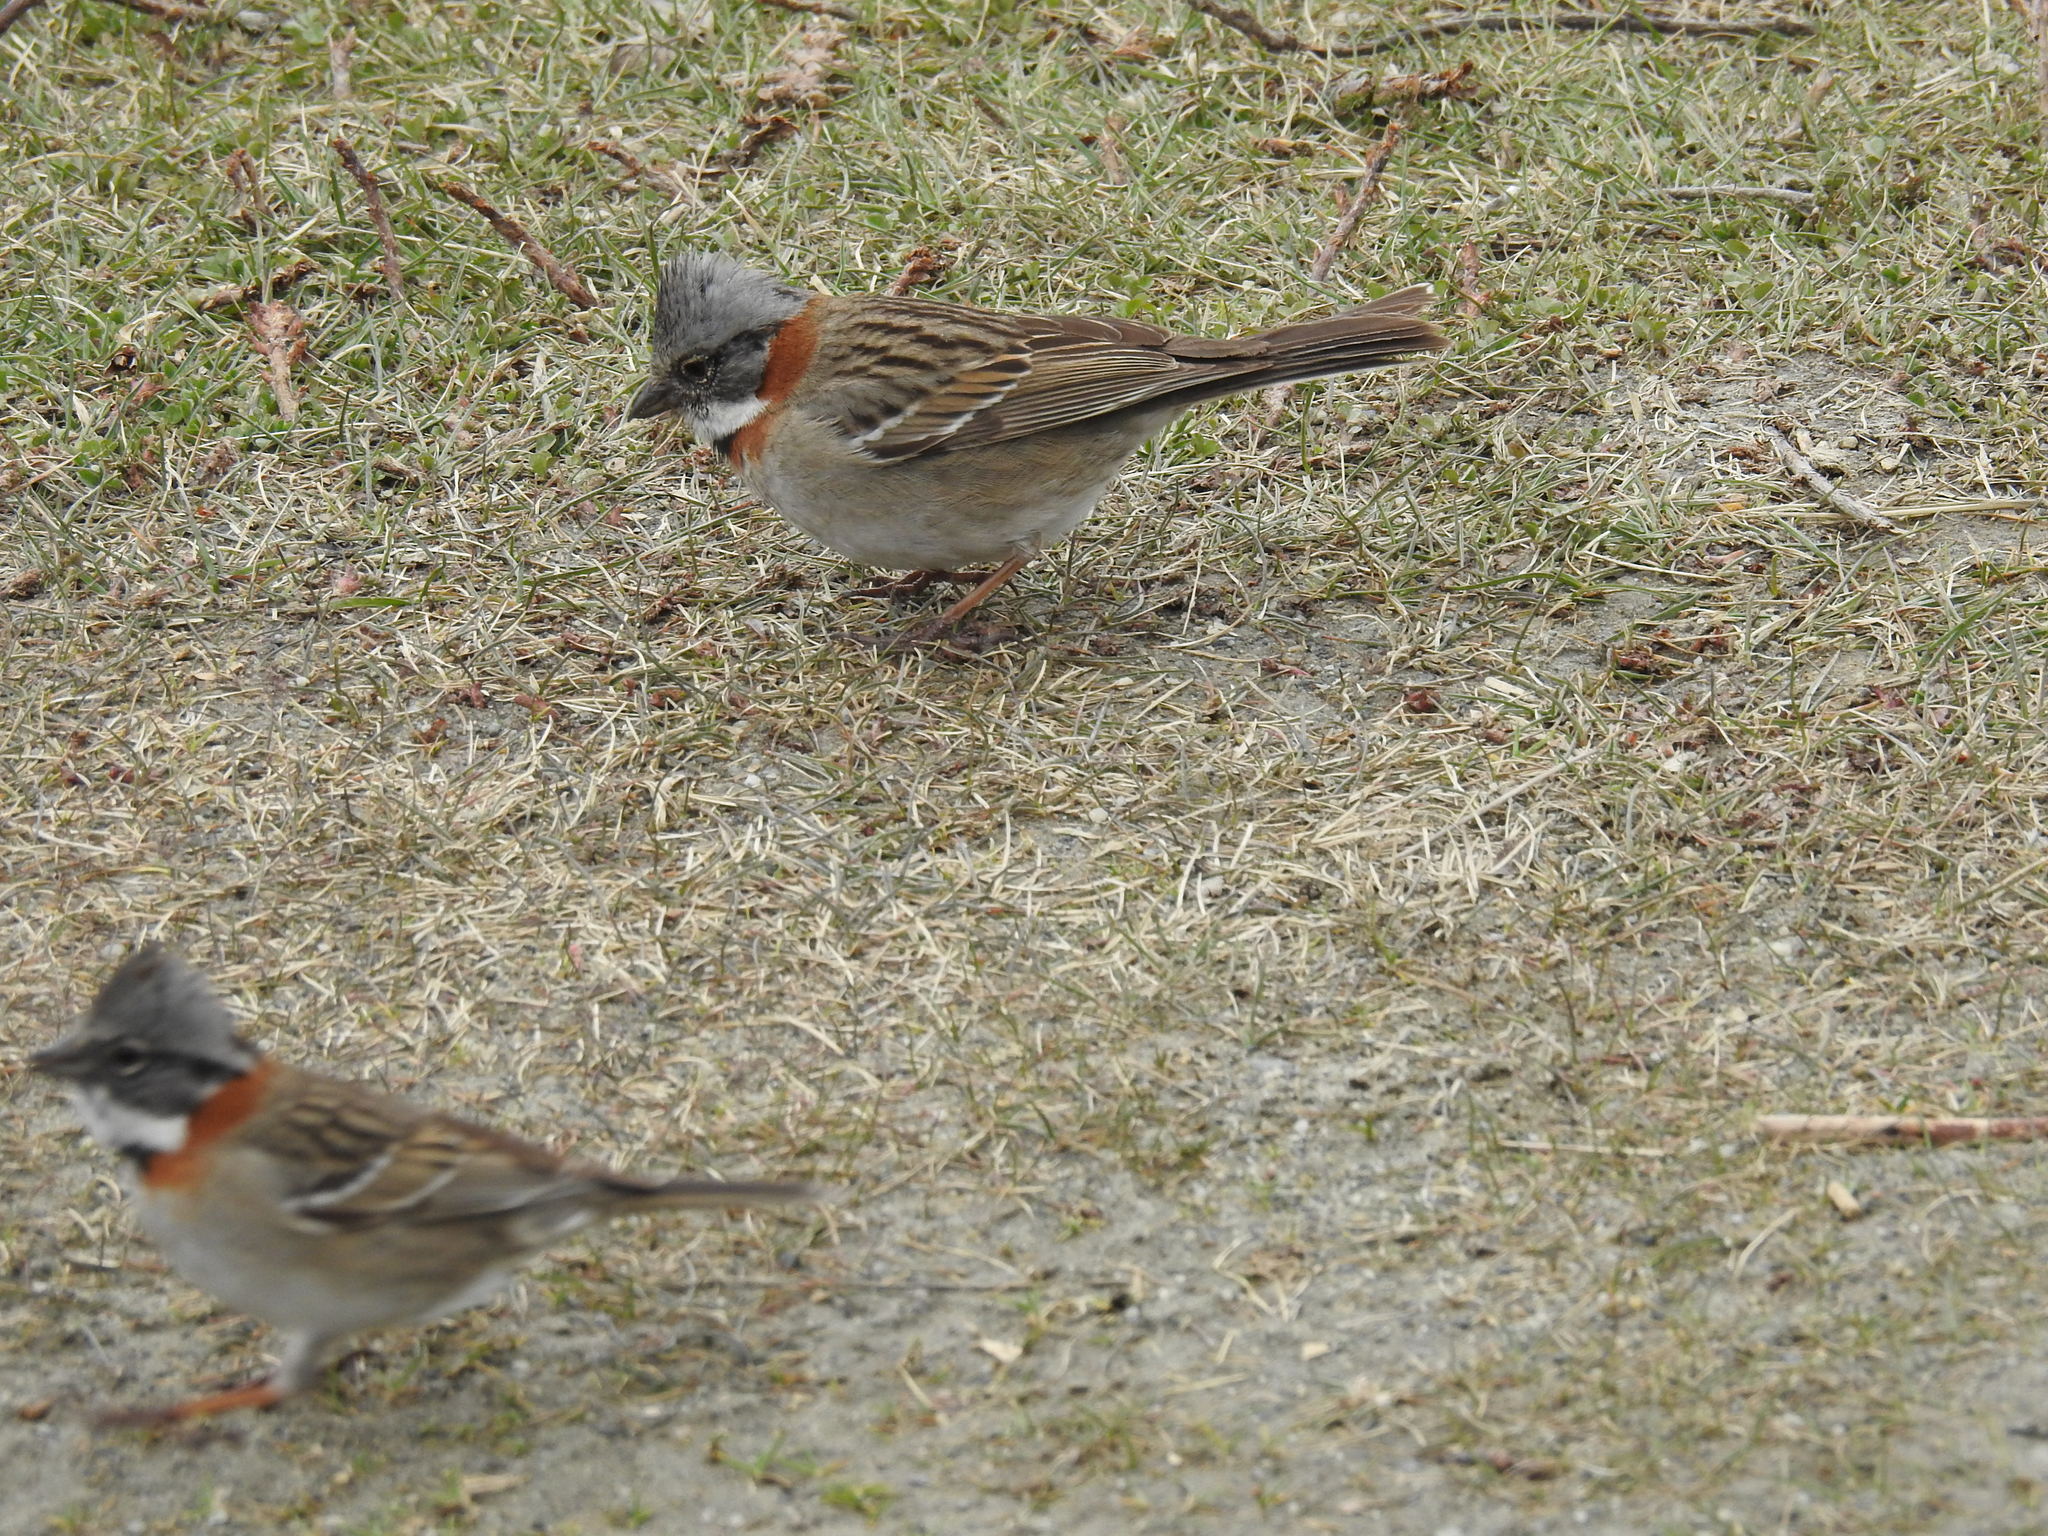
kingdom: Animalia
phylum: Chordata
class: Aves
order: Passeriformes
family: Passerellidae
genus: Zonotrichia
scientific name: Zonotrichia capensis
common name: Rufous-collared sparrow
